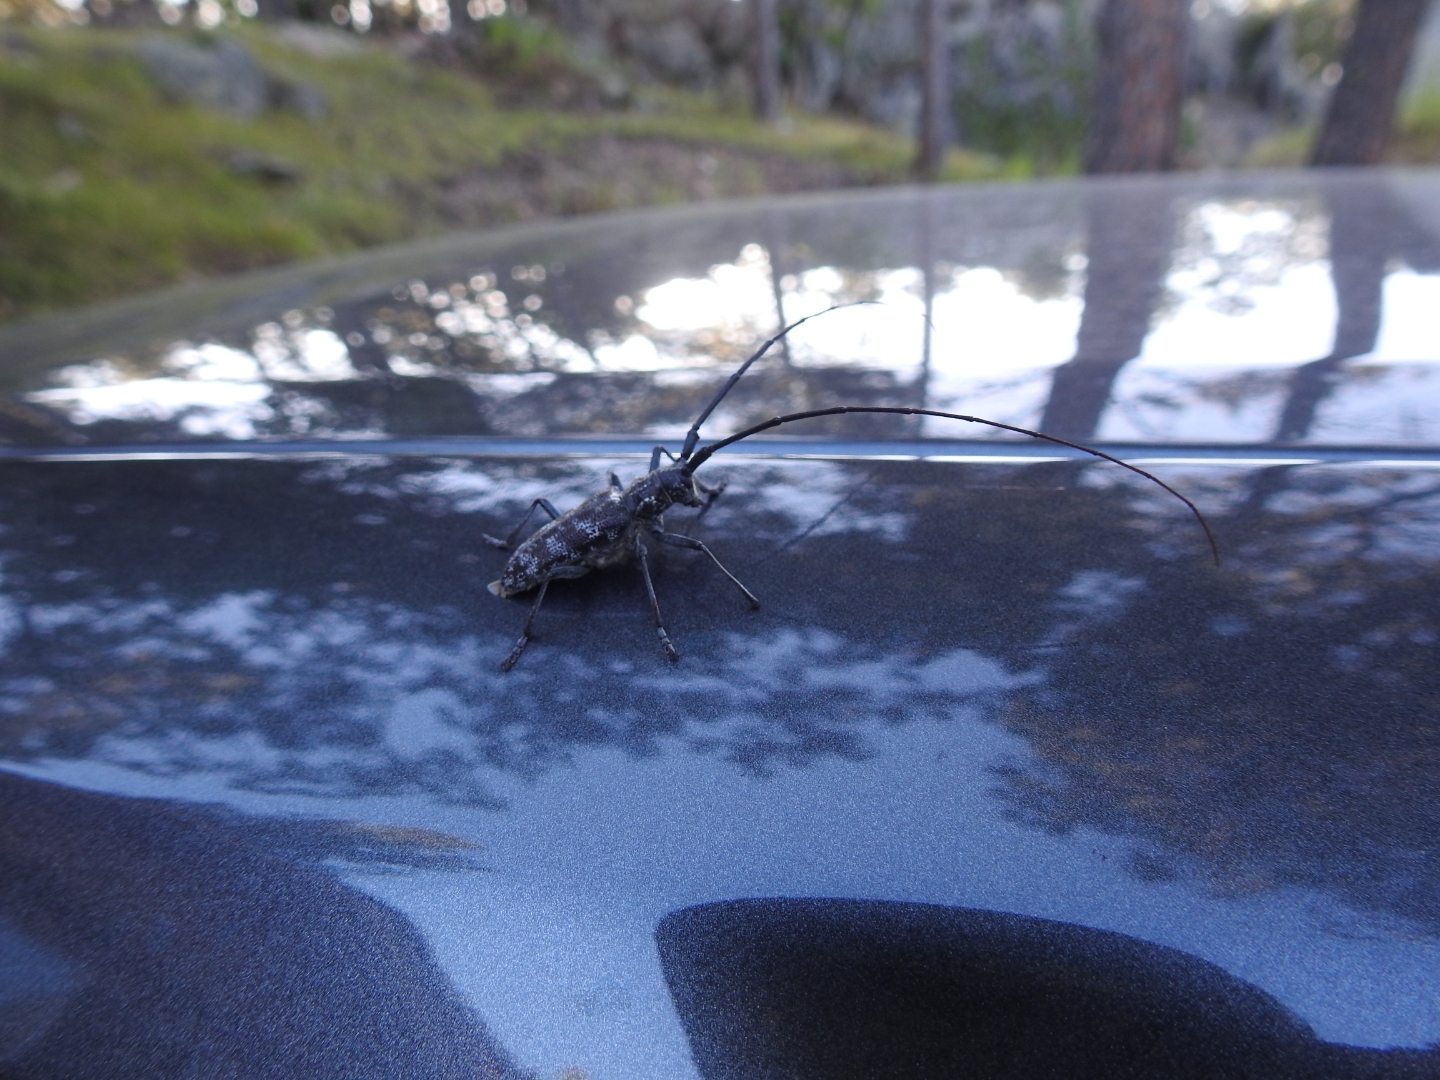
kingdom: Animalia
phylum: Arthropoda
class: Insecta
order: Coleoptera
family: Cerambycidae
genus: Monochamus
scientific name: Monochamus clamator
